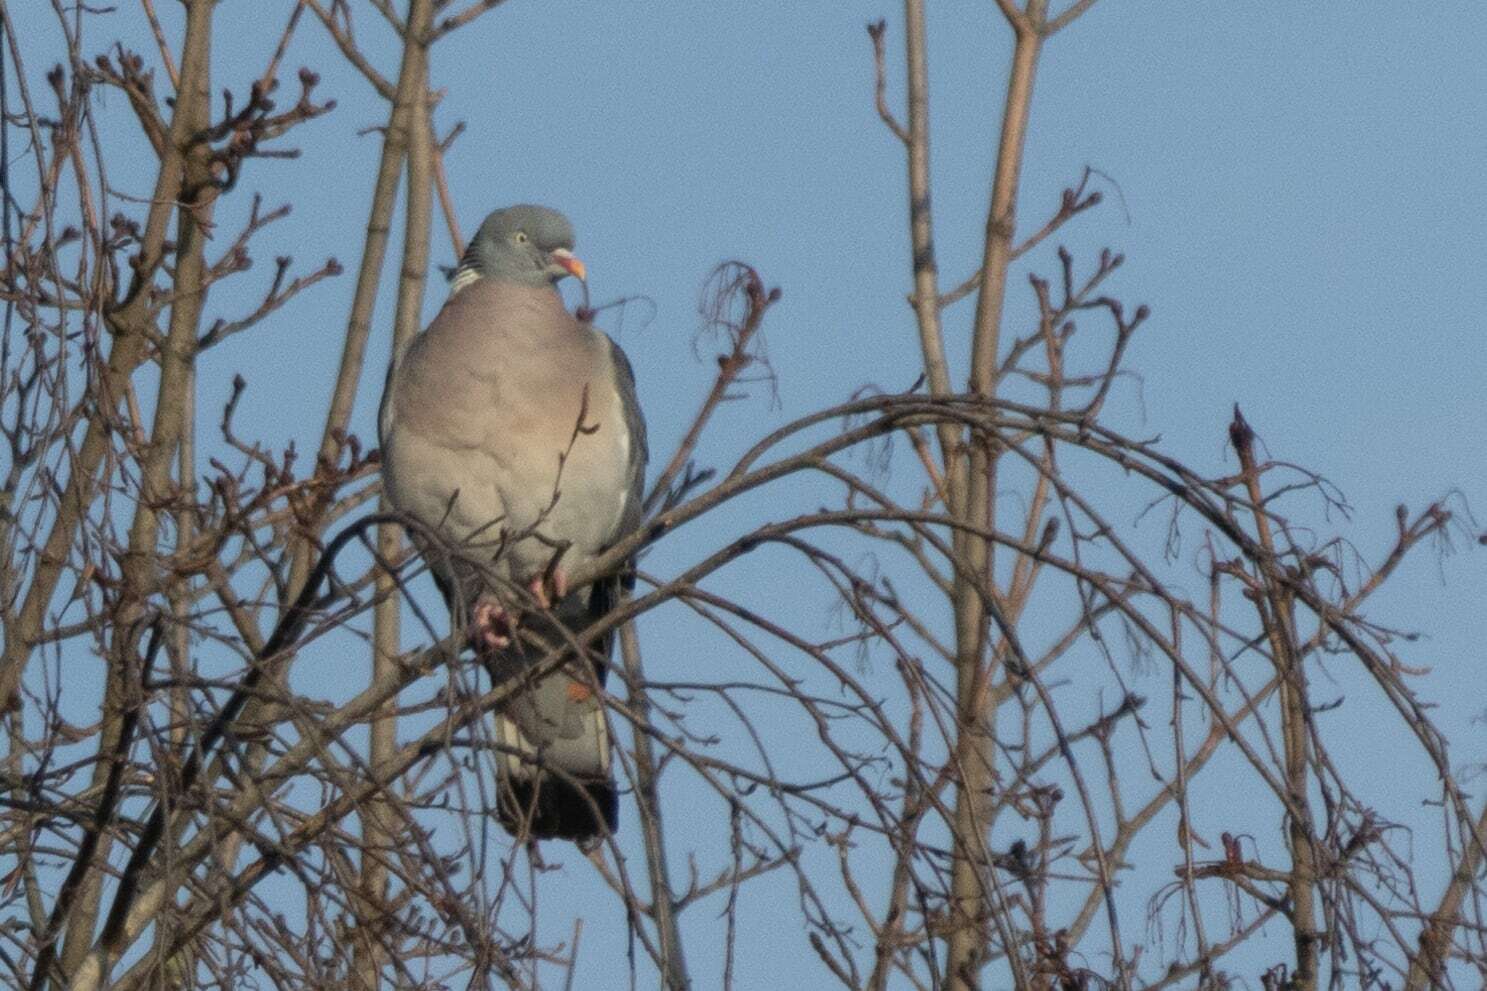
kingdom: Animalia
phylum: Chordata
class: Aves
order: Columbiformes
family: Columbidae
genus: Columba
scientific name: Columba palumbus
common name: Common wood pigeon
